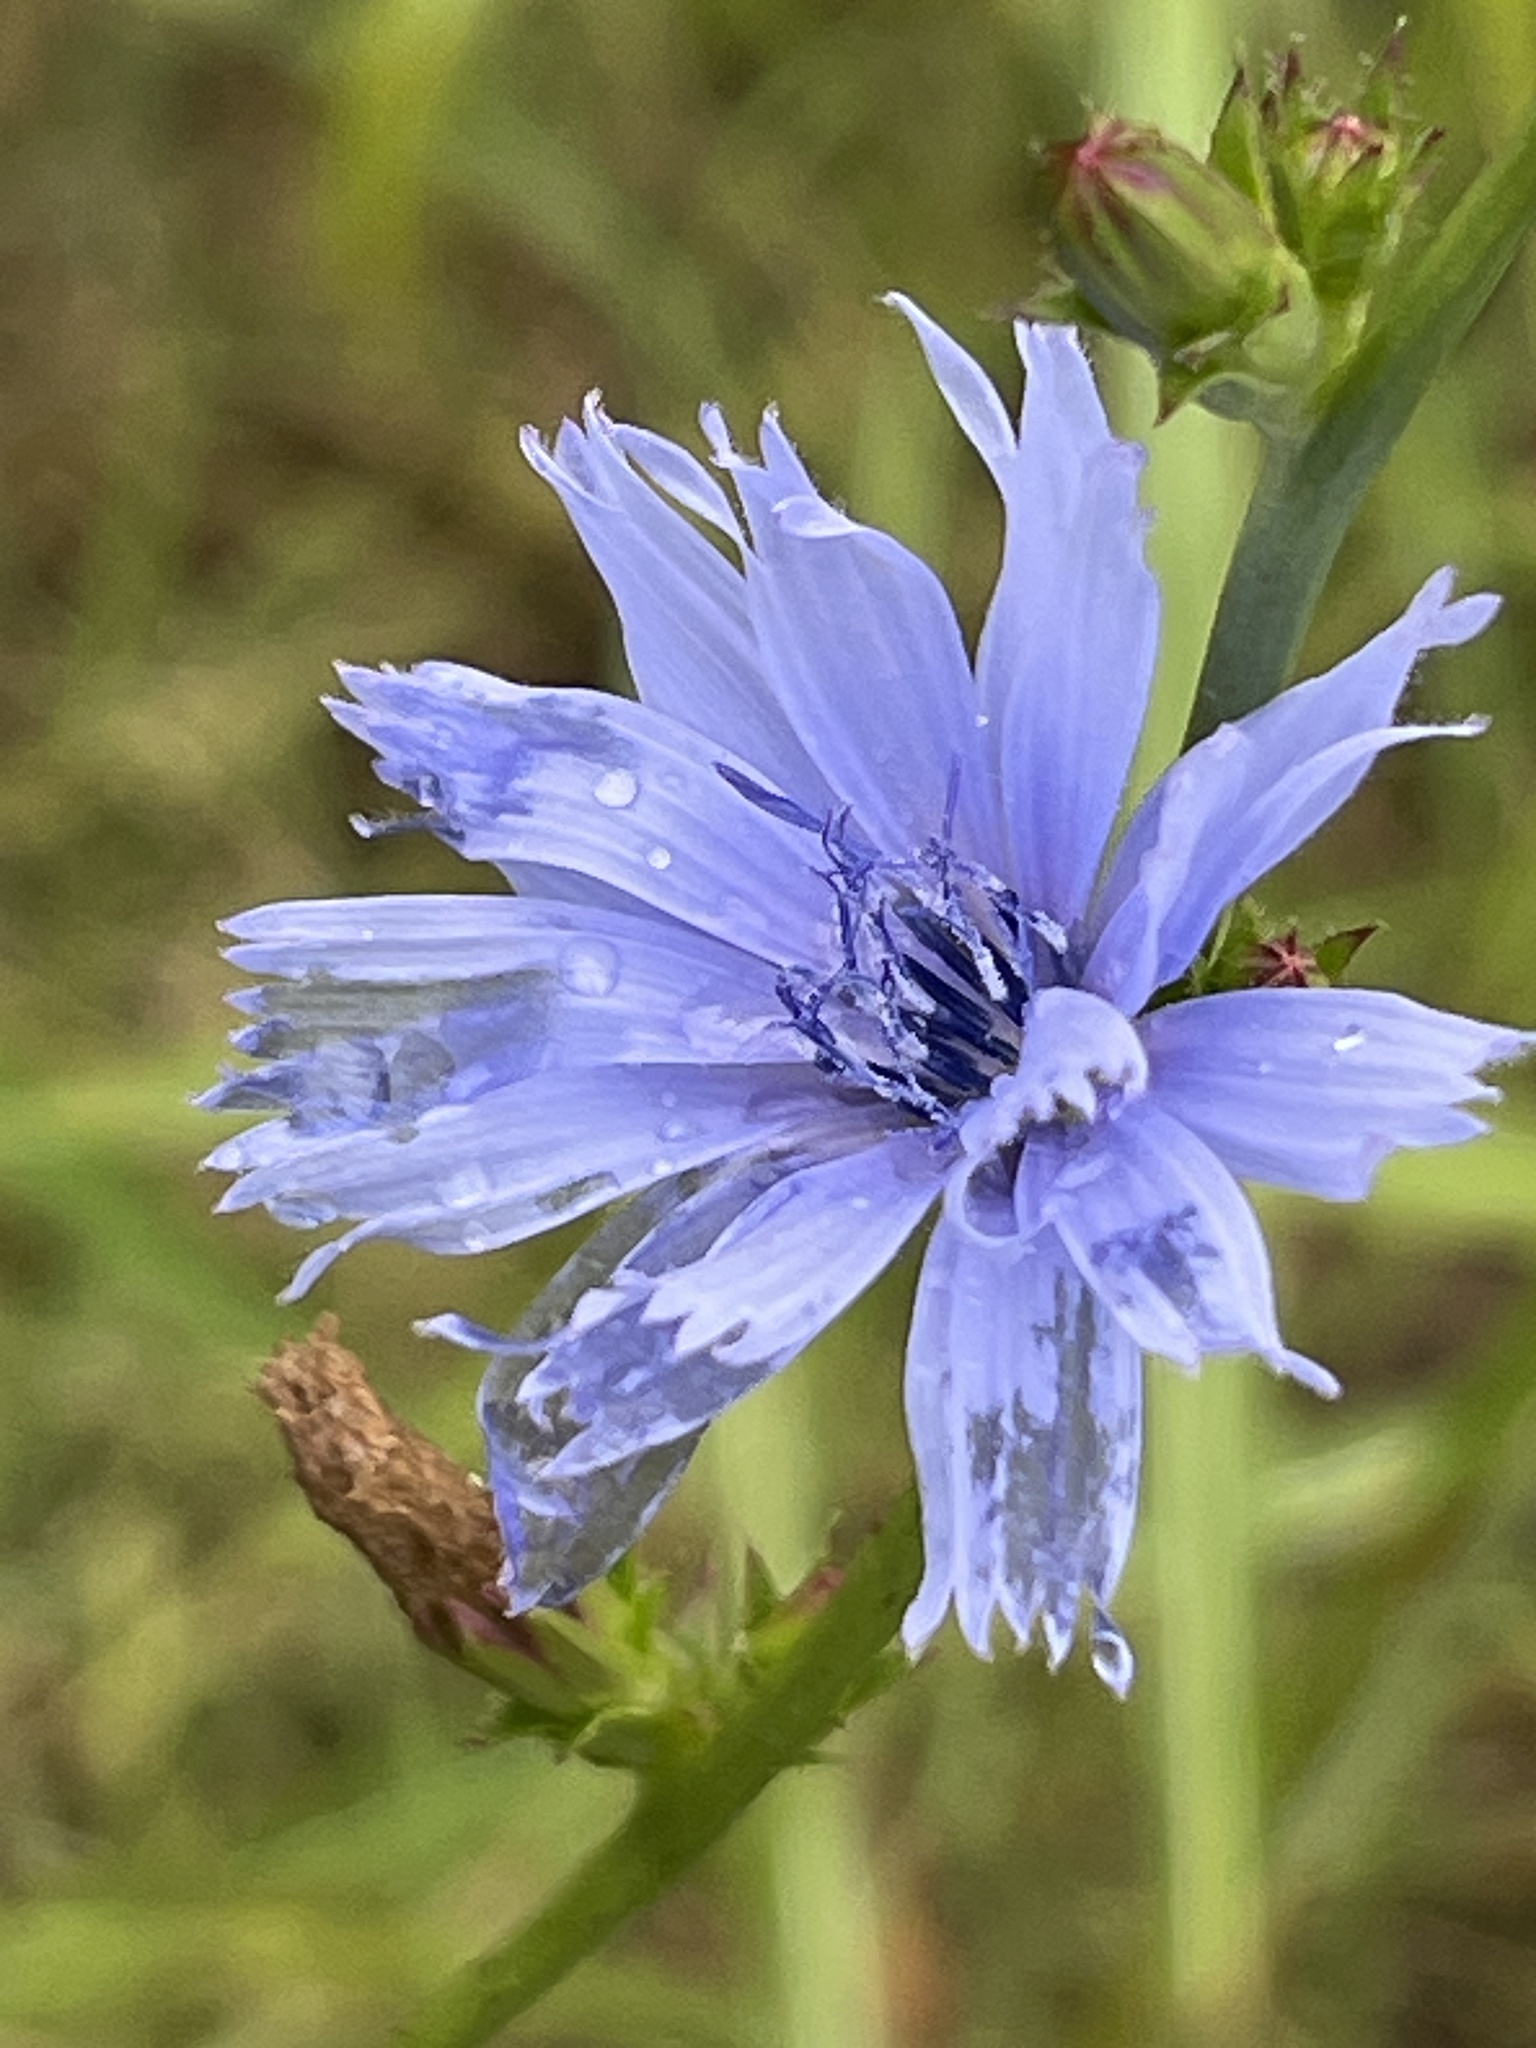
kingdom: Plantae
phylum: Tracheophyta
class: Magnoliopsida
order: Asterales
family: Asteraceae
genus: Cichorium
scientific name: Cichorium intybus
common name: Chicory
